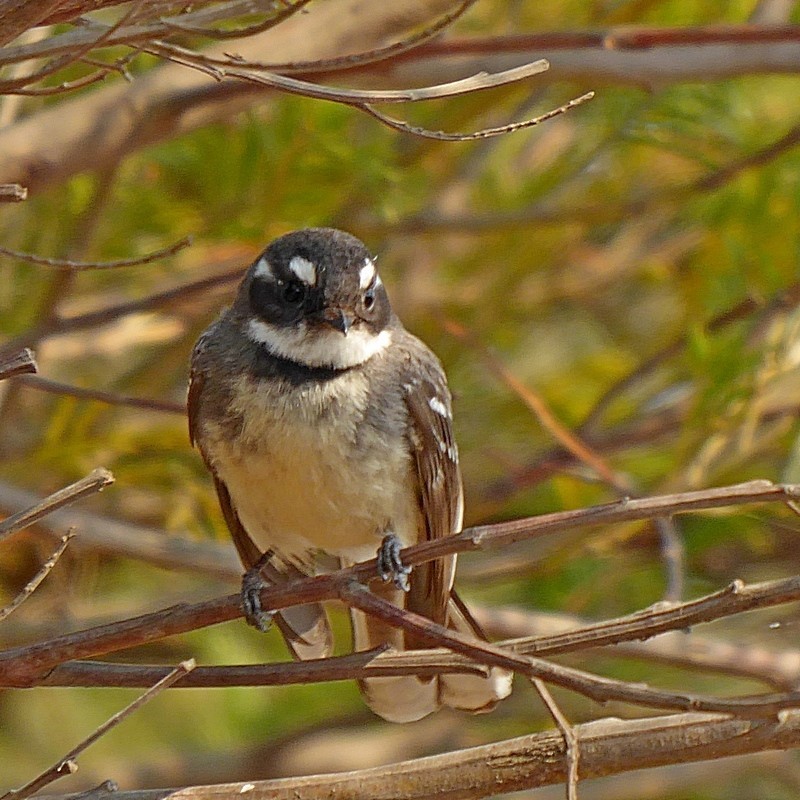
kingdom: Animalia
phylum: Chordata
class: Aves
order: Passeriformes
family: Rhipiduridae
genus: Rhipidura
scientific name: Rhipidura albiscapa
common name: Grey fantail
